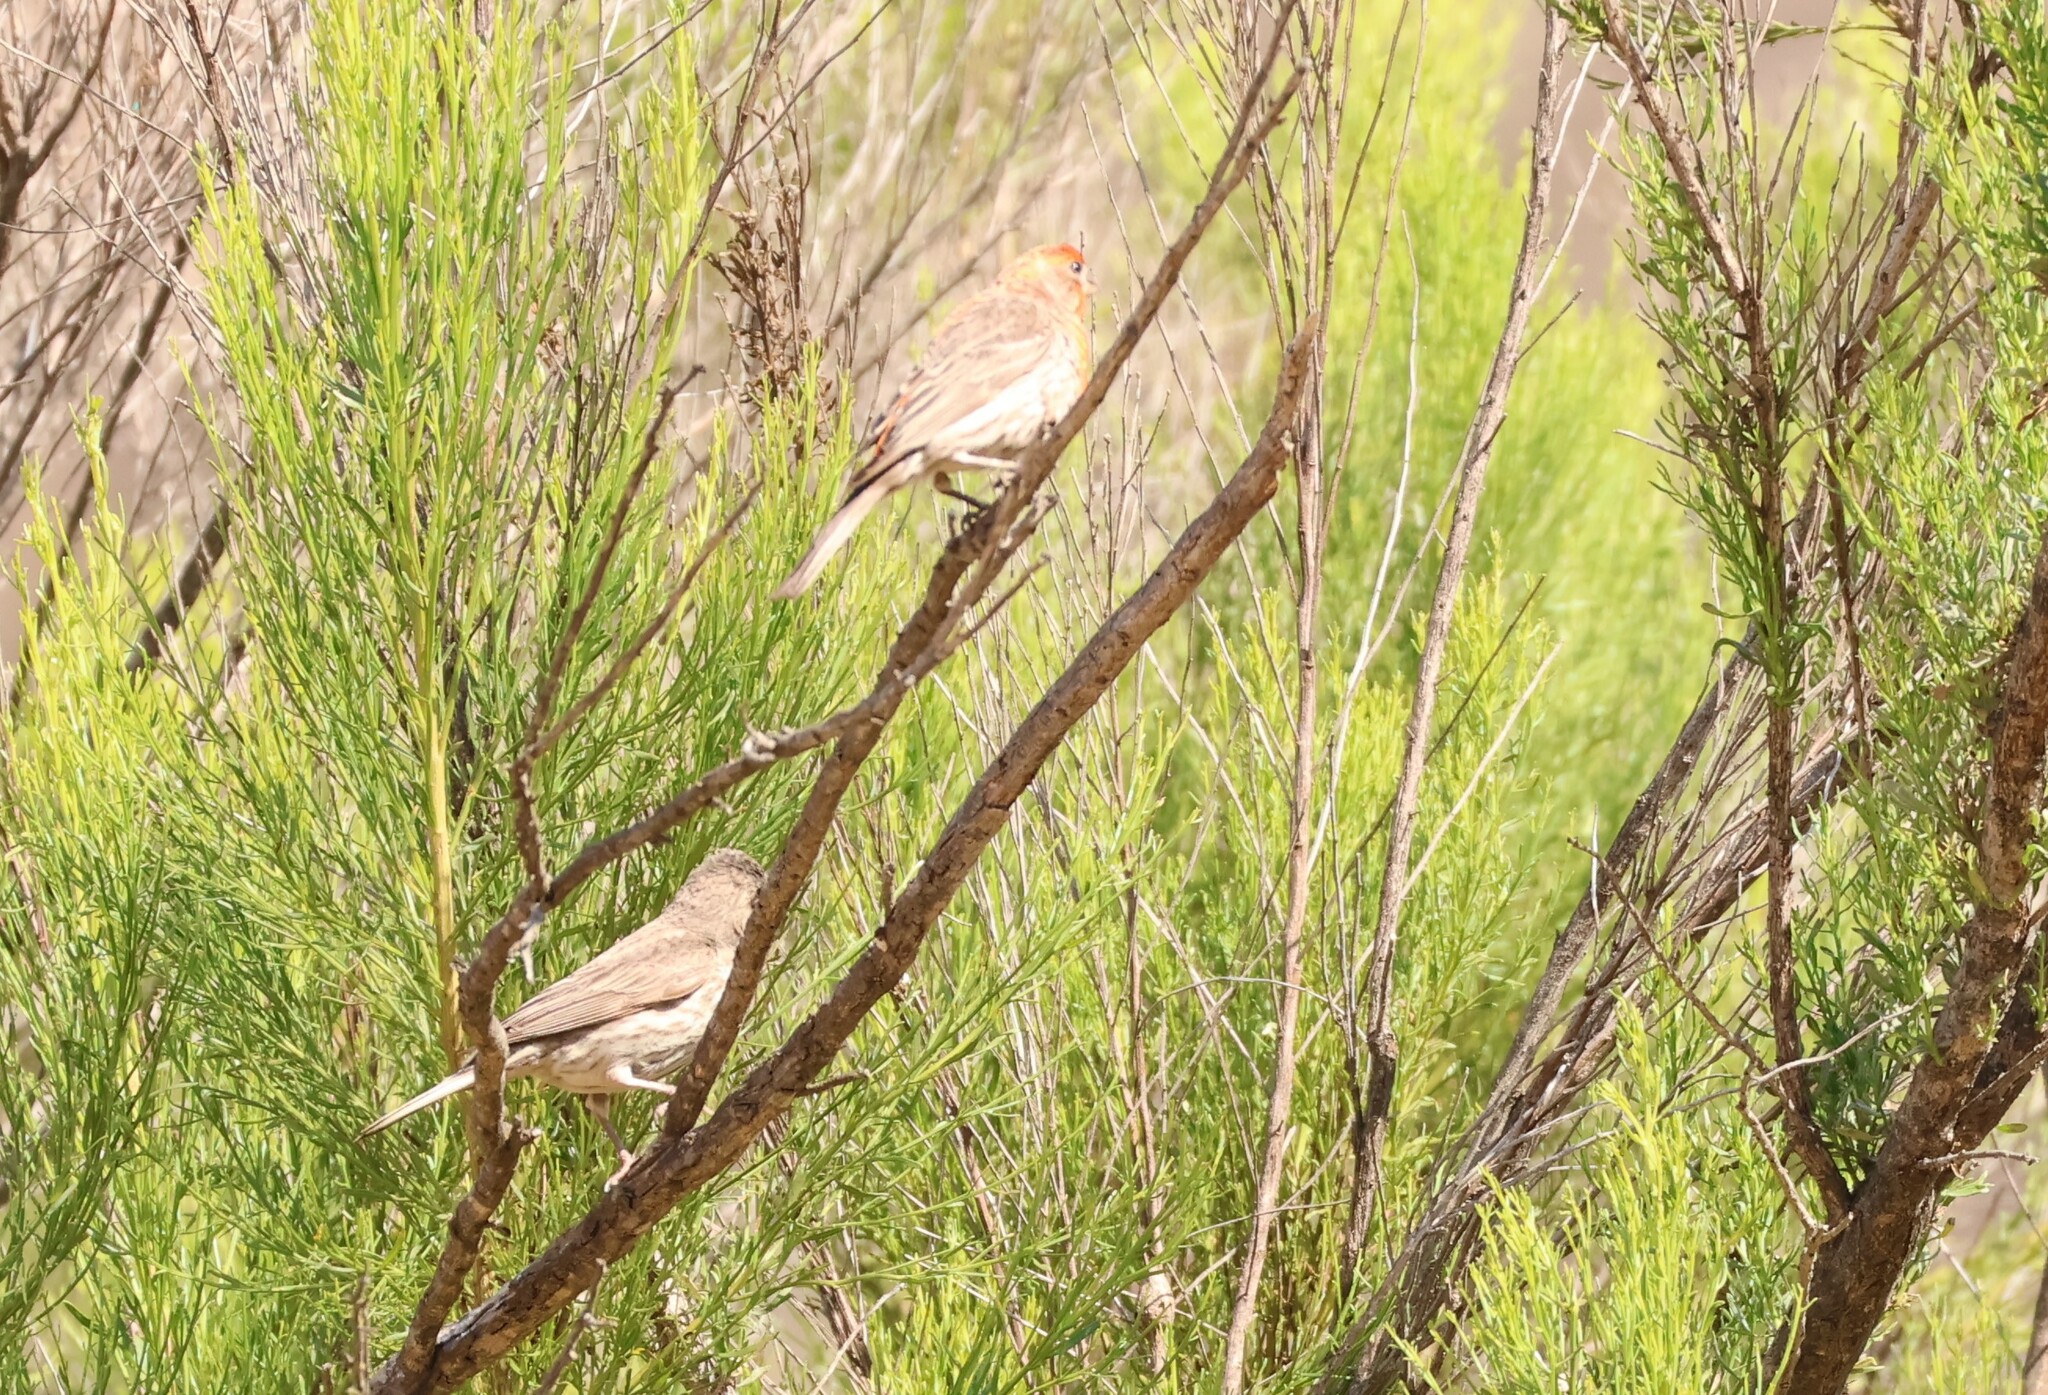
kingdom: Animalia
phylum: Chordata
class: Aves
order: Passeriformes
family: Fringillidae
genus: Haemorhous
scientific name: Haemorhous mexicanus
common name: House finch
